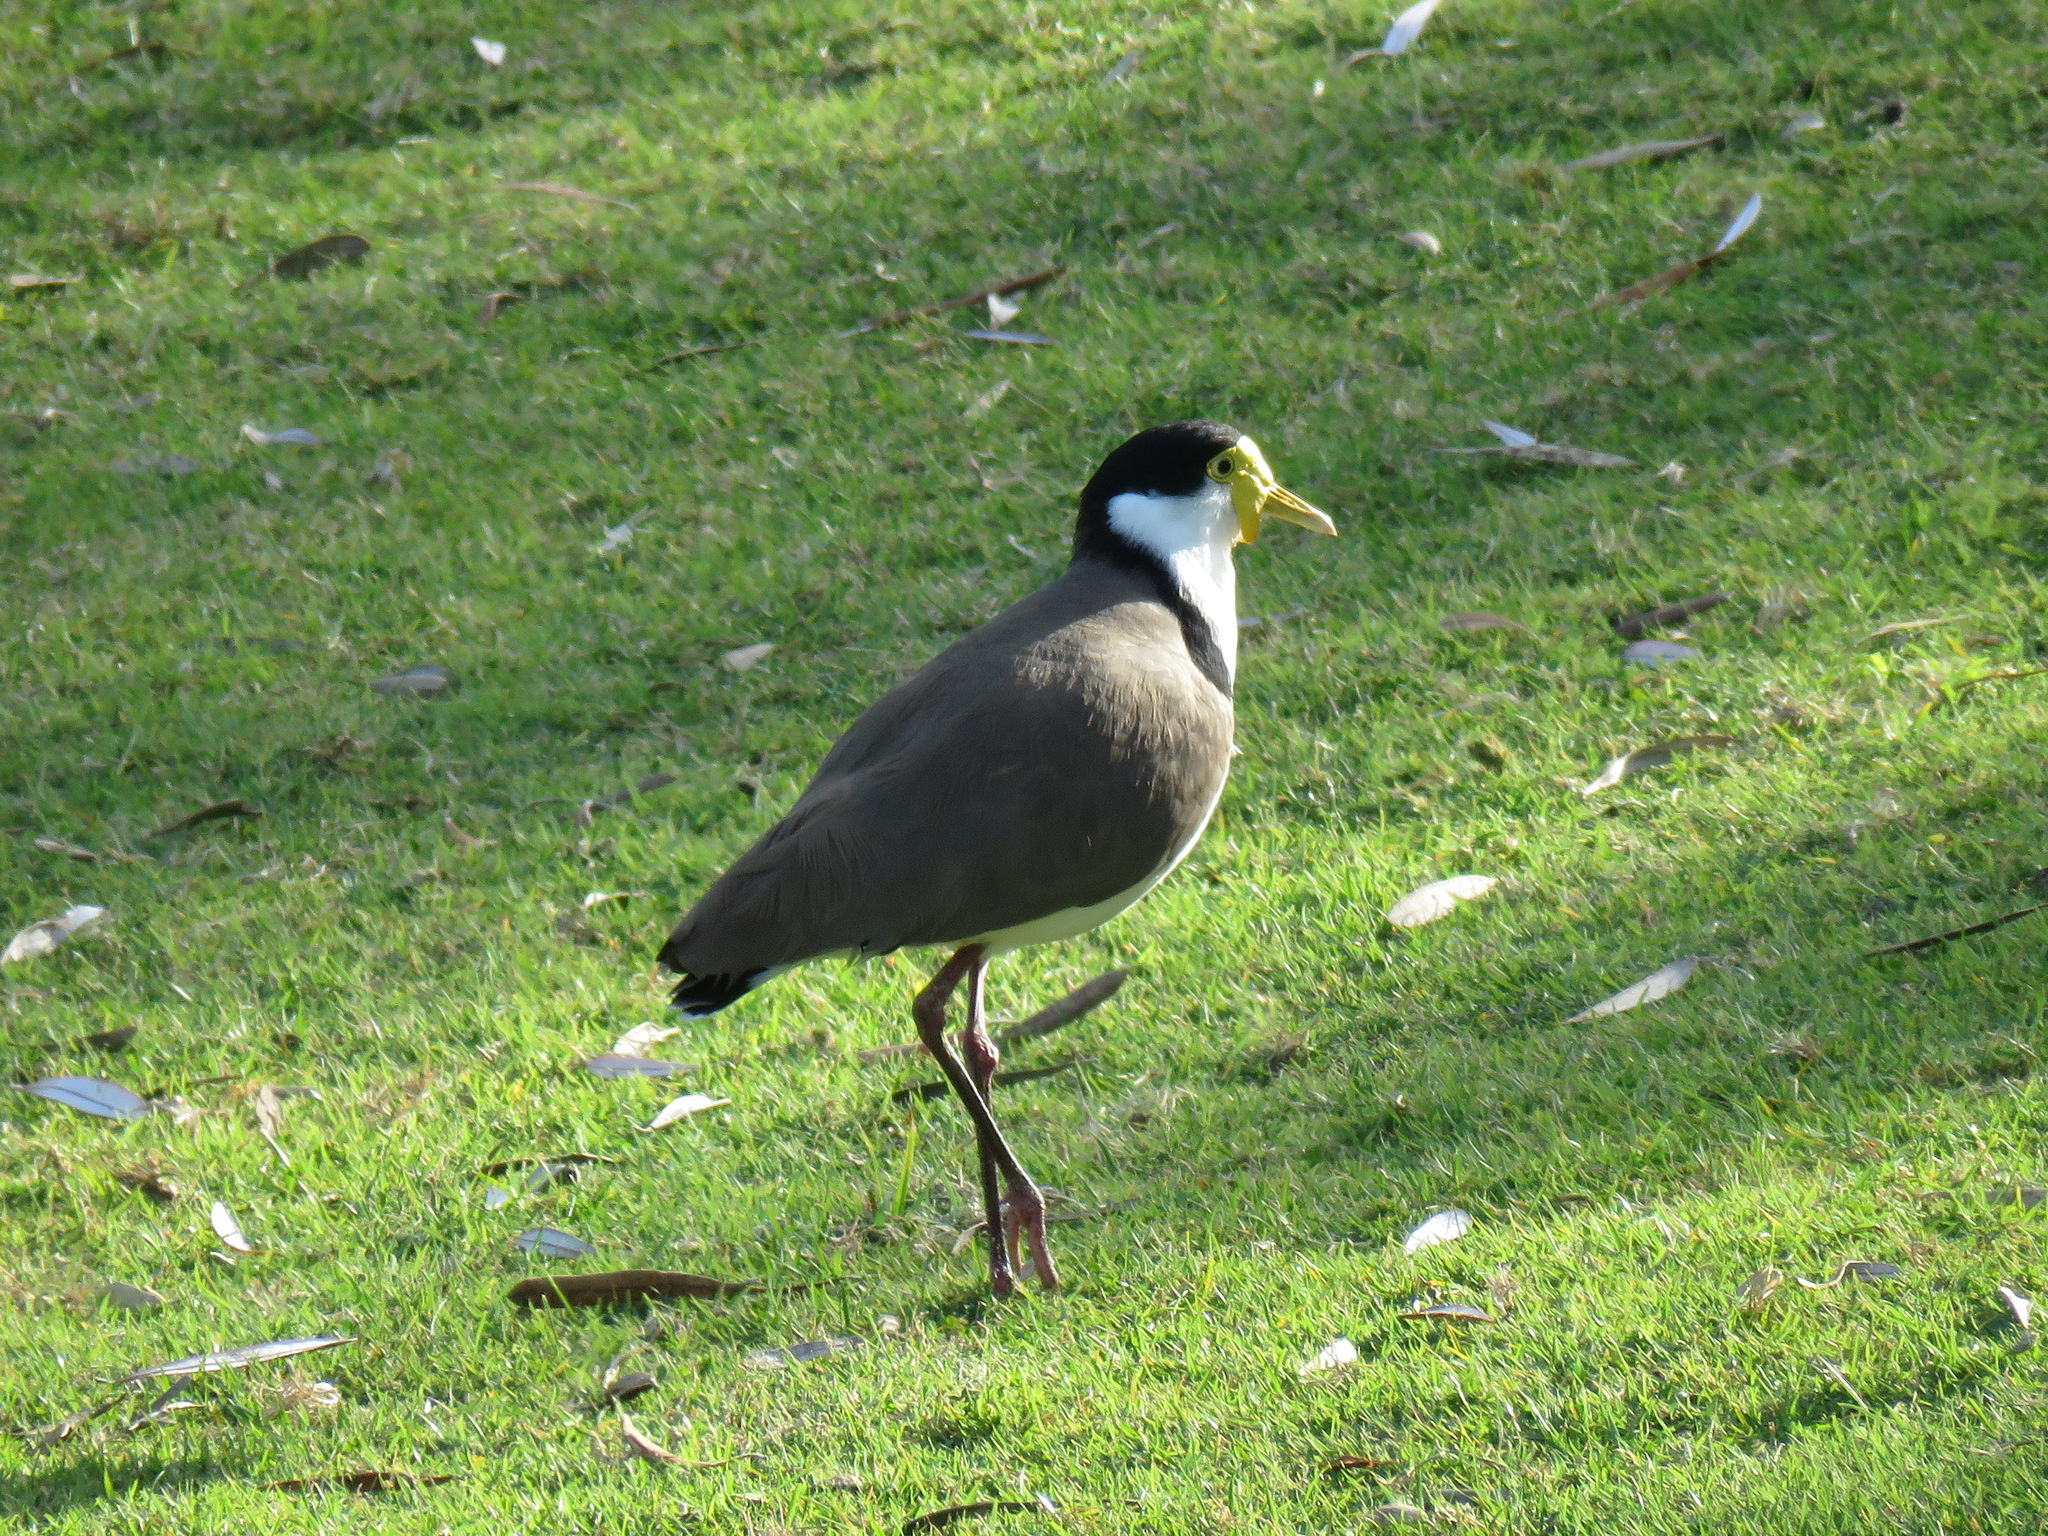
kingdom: Animalia
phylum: Chordata
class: Aves
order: Charadriiformes
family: Charadriidae
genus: Vanellus
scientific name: Vanellus miles
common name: Masked lapwing
